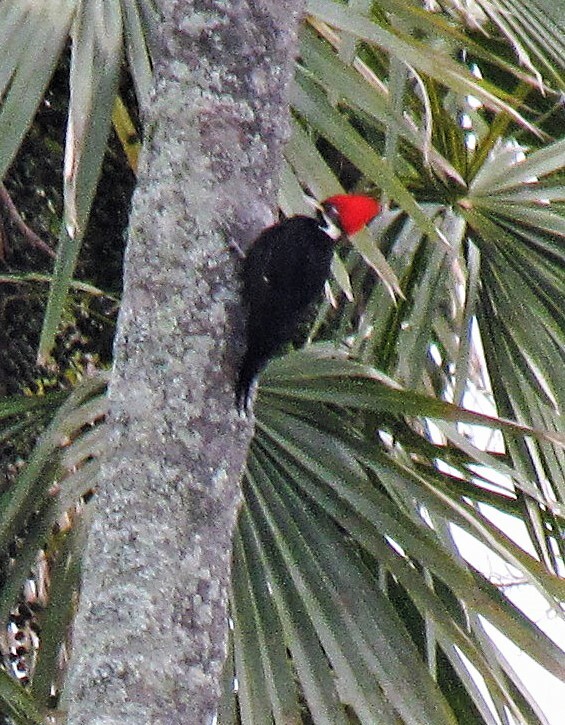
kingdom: Animalia
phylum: Chordata
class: Aves
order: Piciformes
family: Picidae
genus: Dryocopus
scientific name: Dryocopus schulzii
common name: Black-bodied woodpecker
